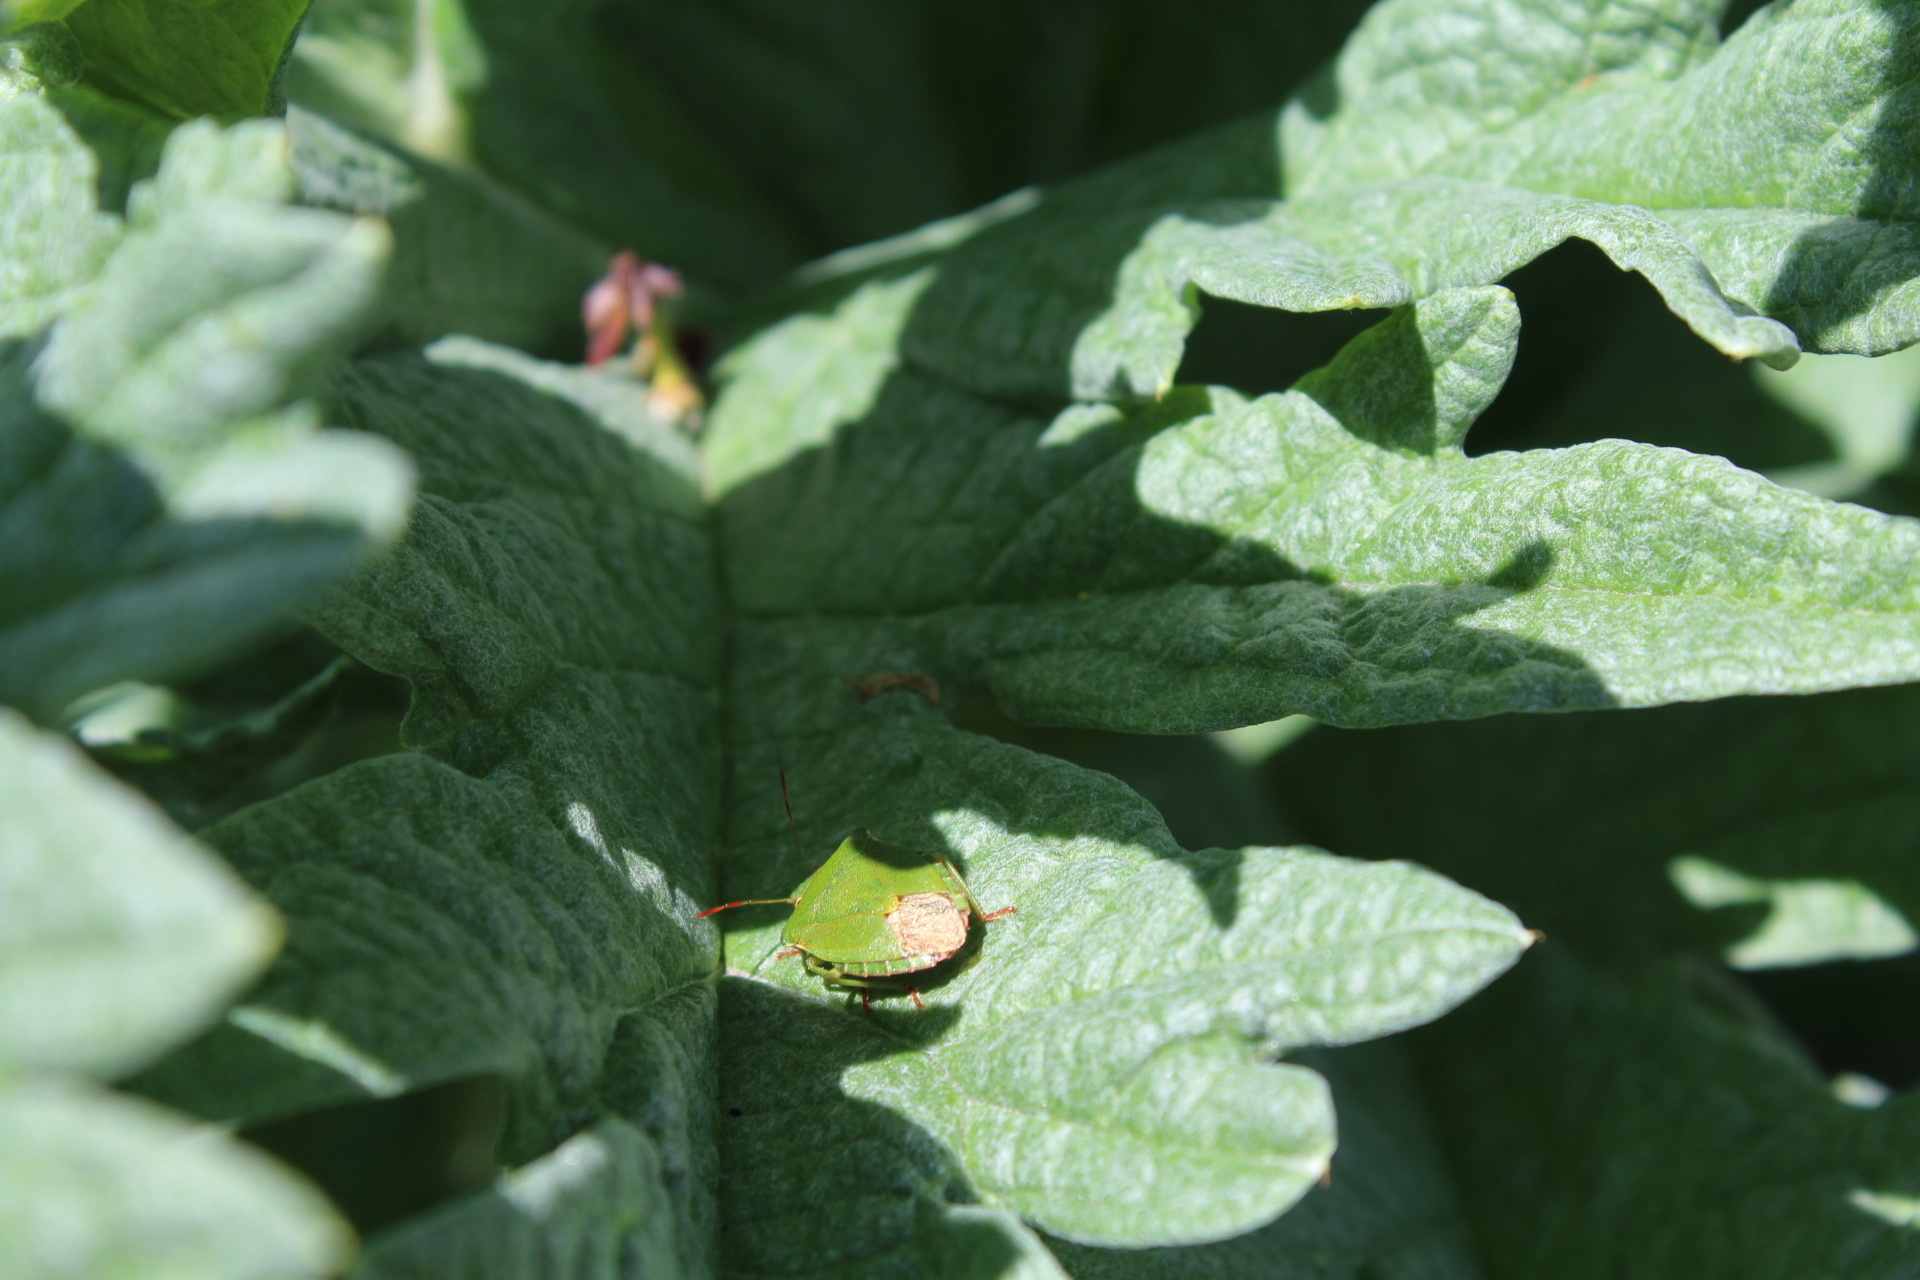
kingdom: Animalia
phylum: Arthropoda
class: Insecta
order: Hemiptera
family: Pentatomidae
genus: Palomena
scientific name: Palomena prasina
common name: Green shieldbug
